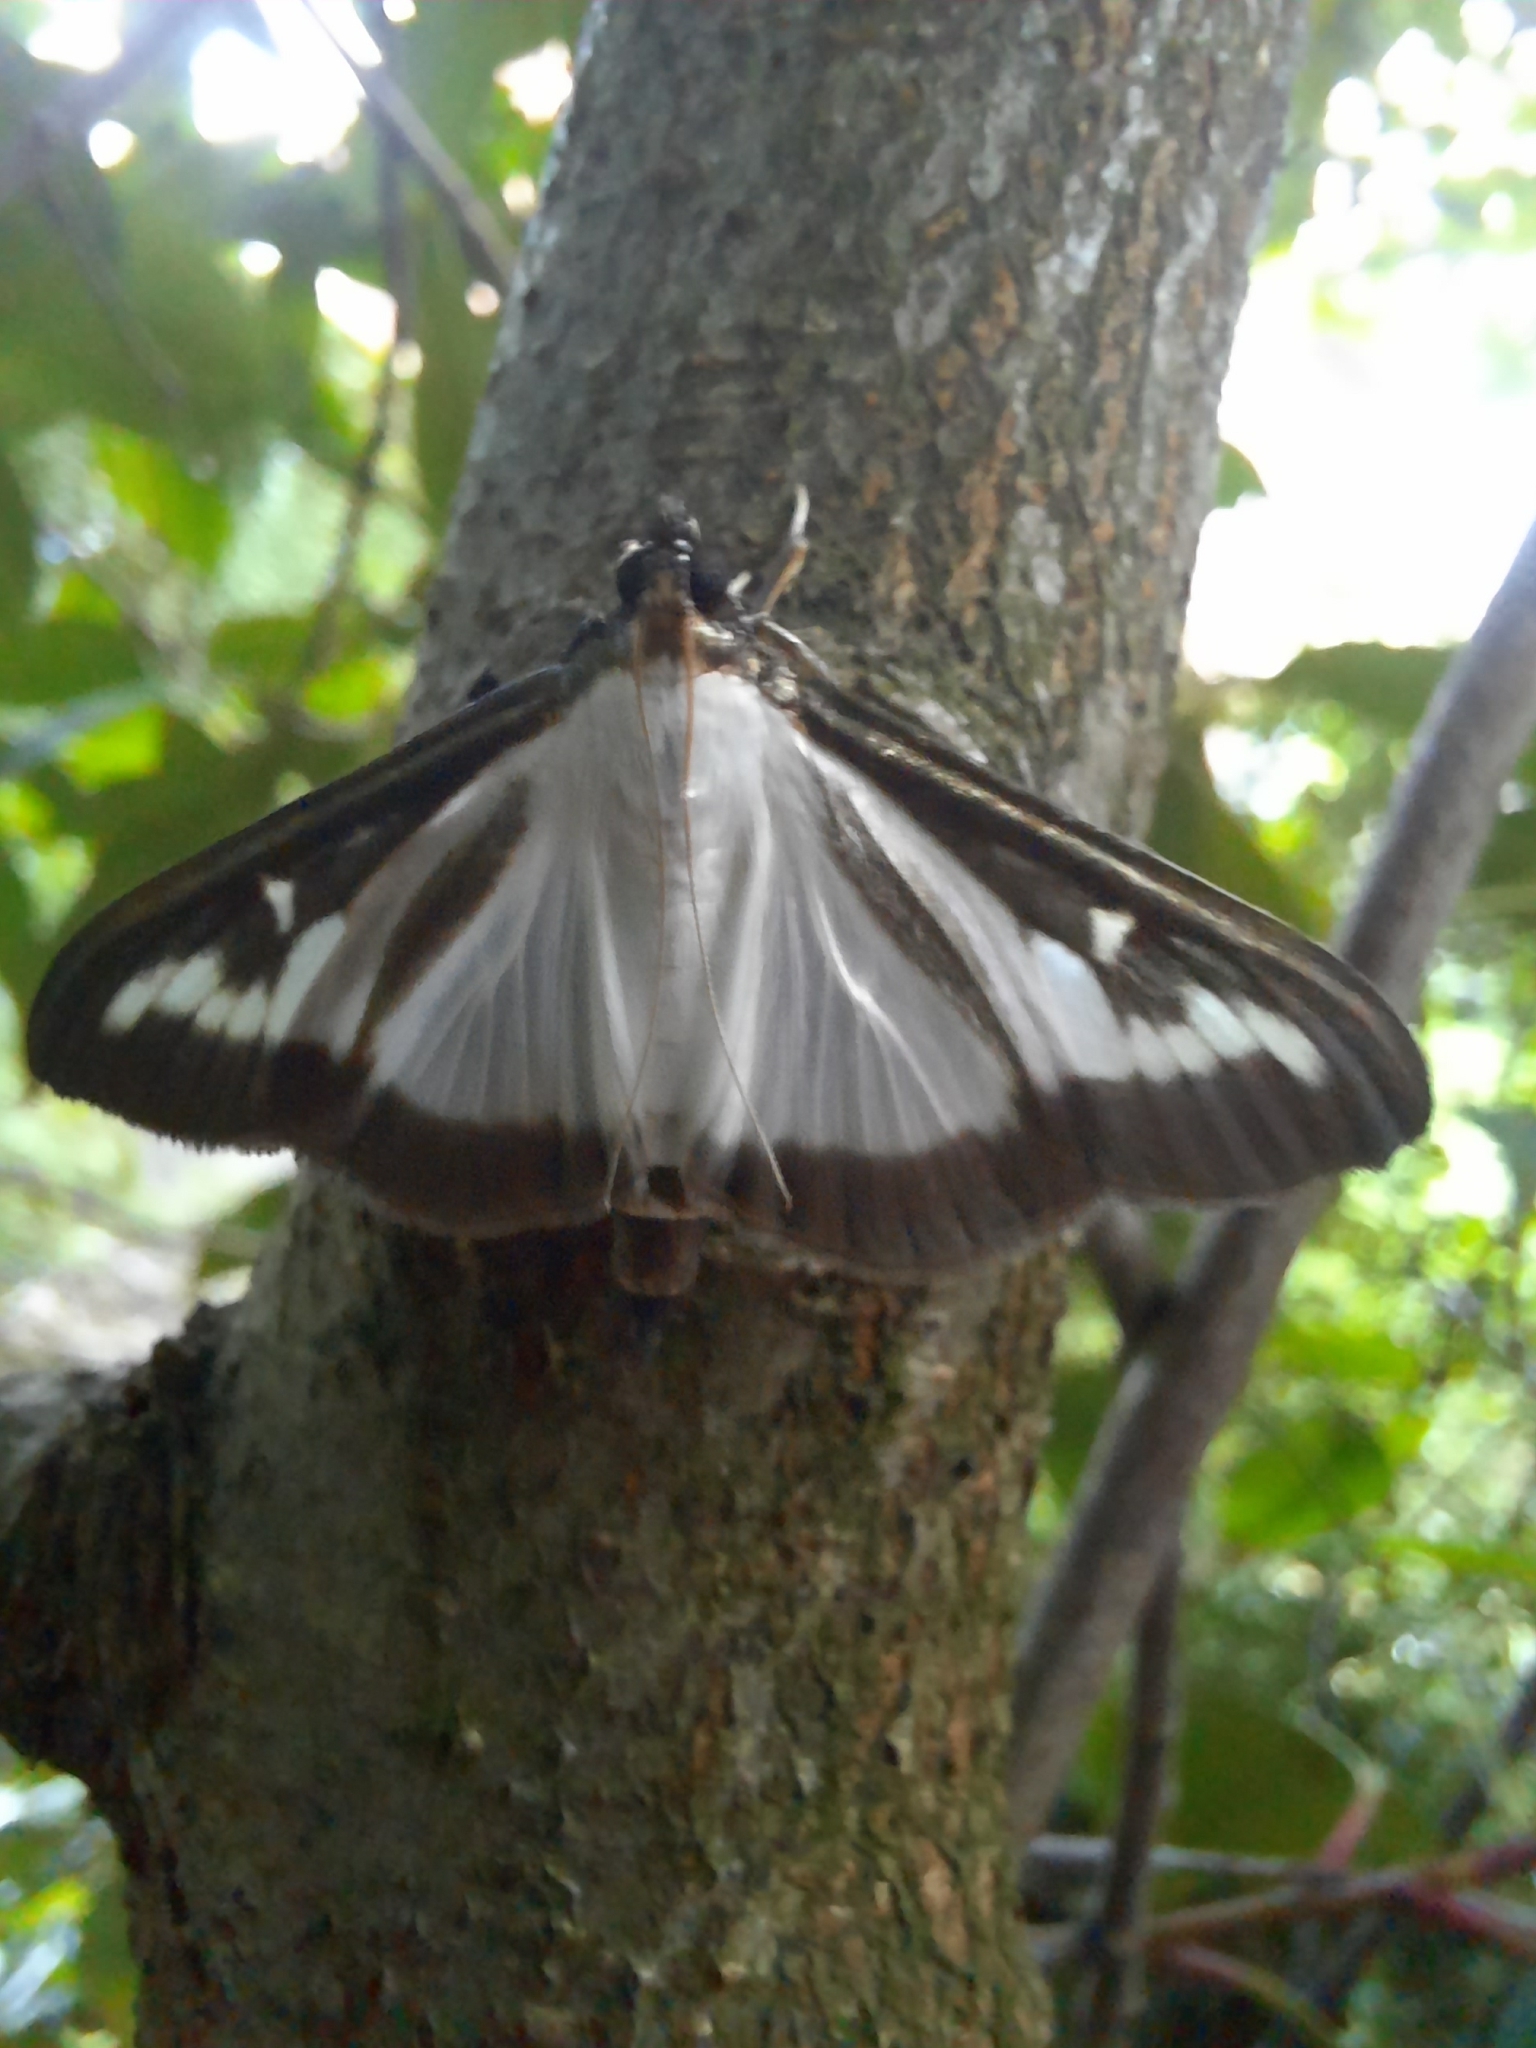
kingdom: Animalia
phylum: Arthropoda
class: Insecta
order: Lepidoptera
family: Crambidae
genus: Cydalima
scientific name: Cydalima perspectalis
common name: Box tree moth
